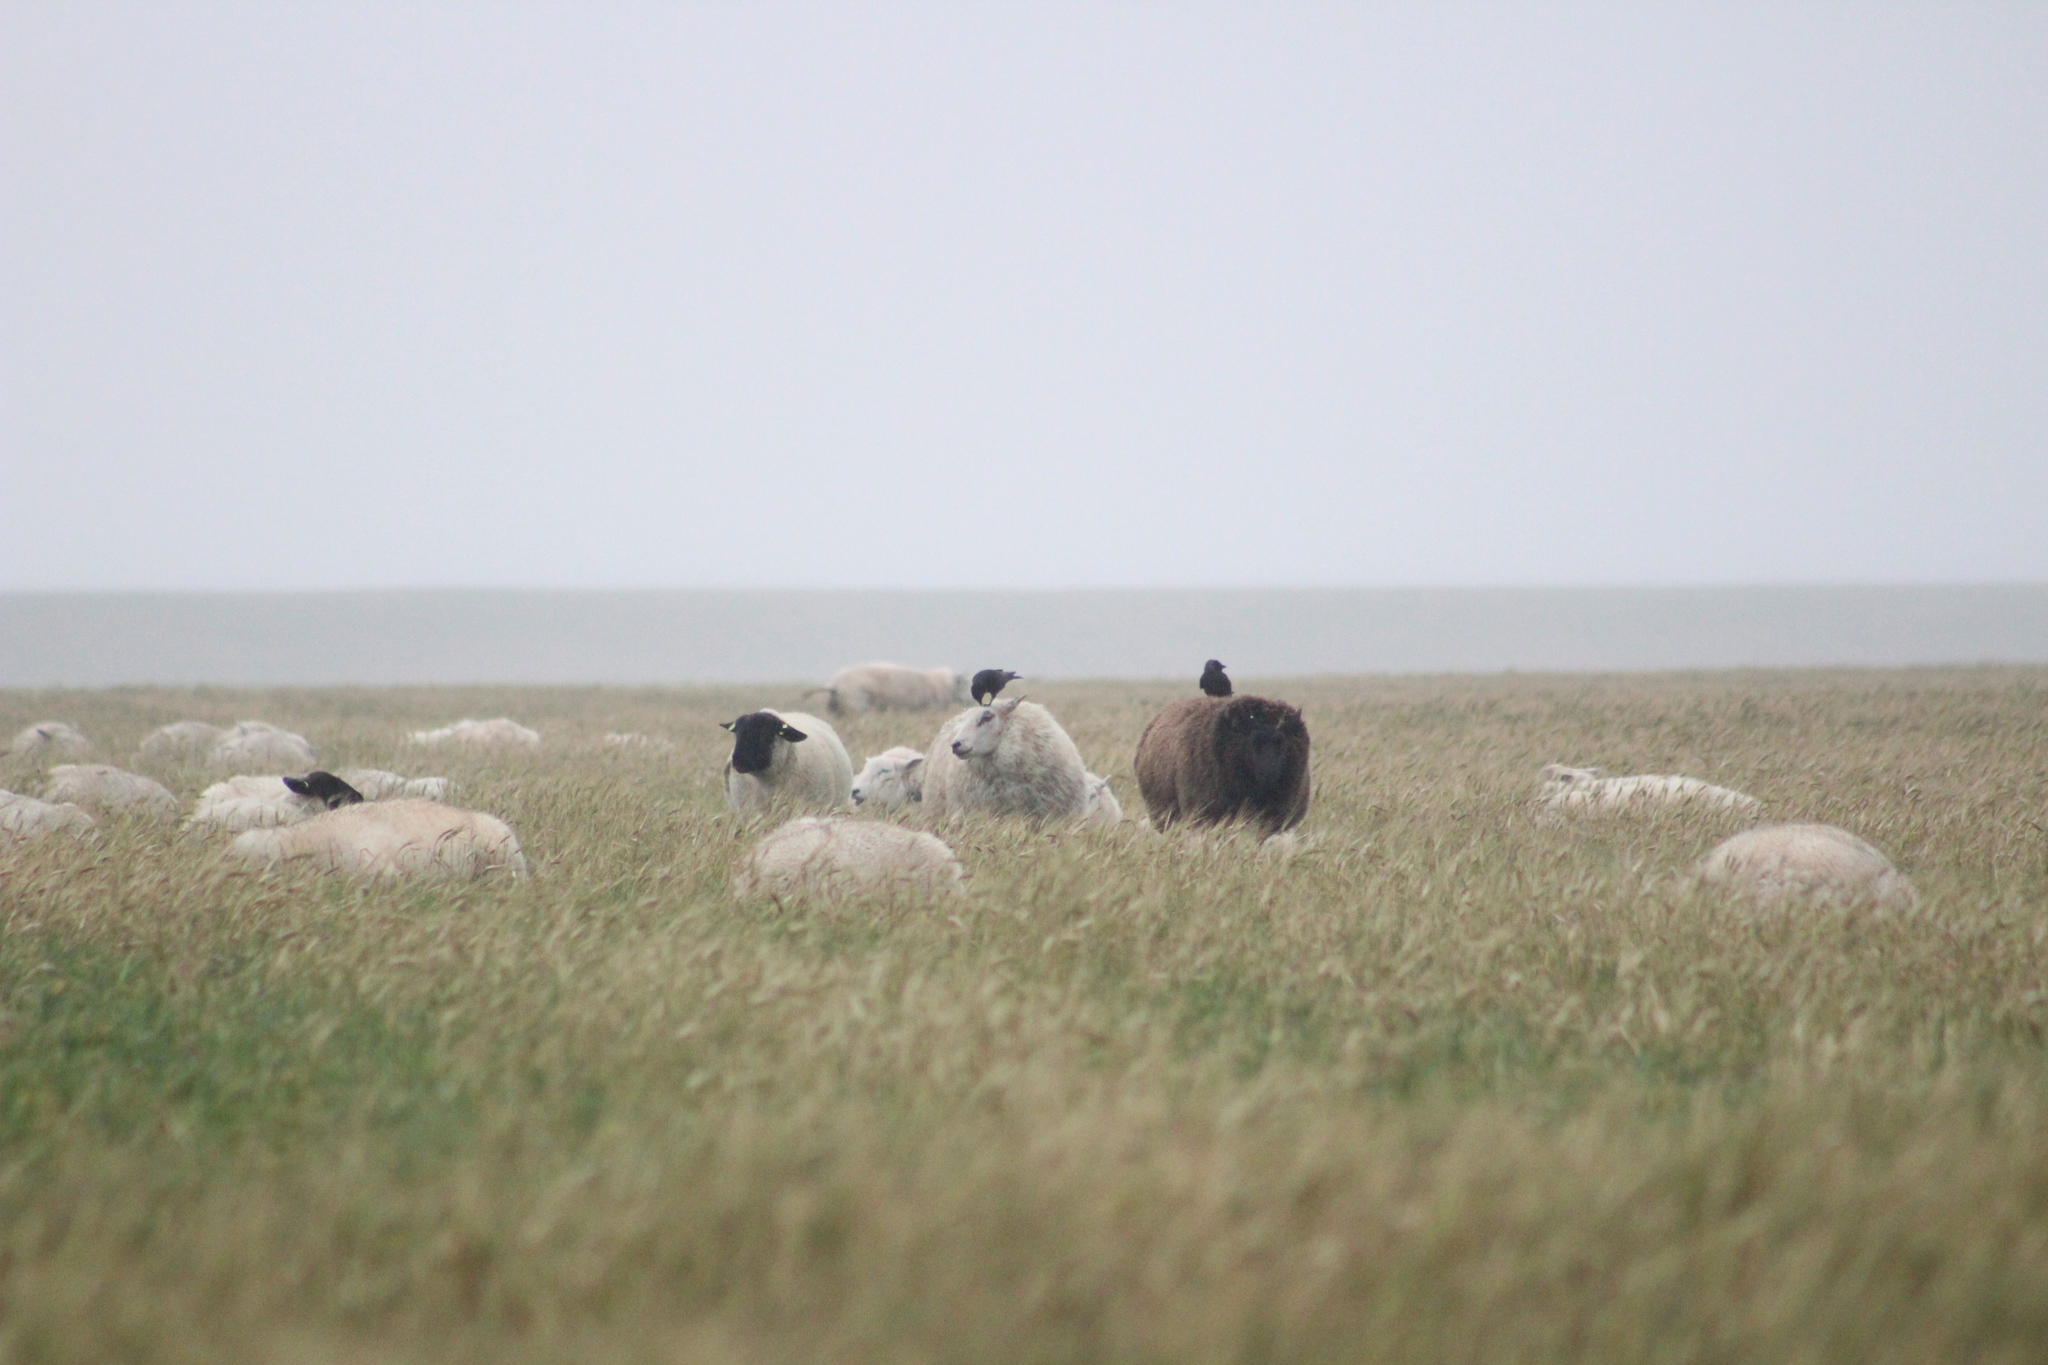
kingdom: Animalia
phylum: Chordata
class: Aves
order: Passeriformes
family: Corvidae
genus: Coloeus
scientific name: Coloeus monedula
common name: Western jackdaw
